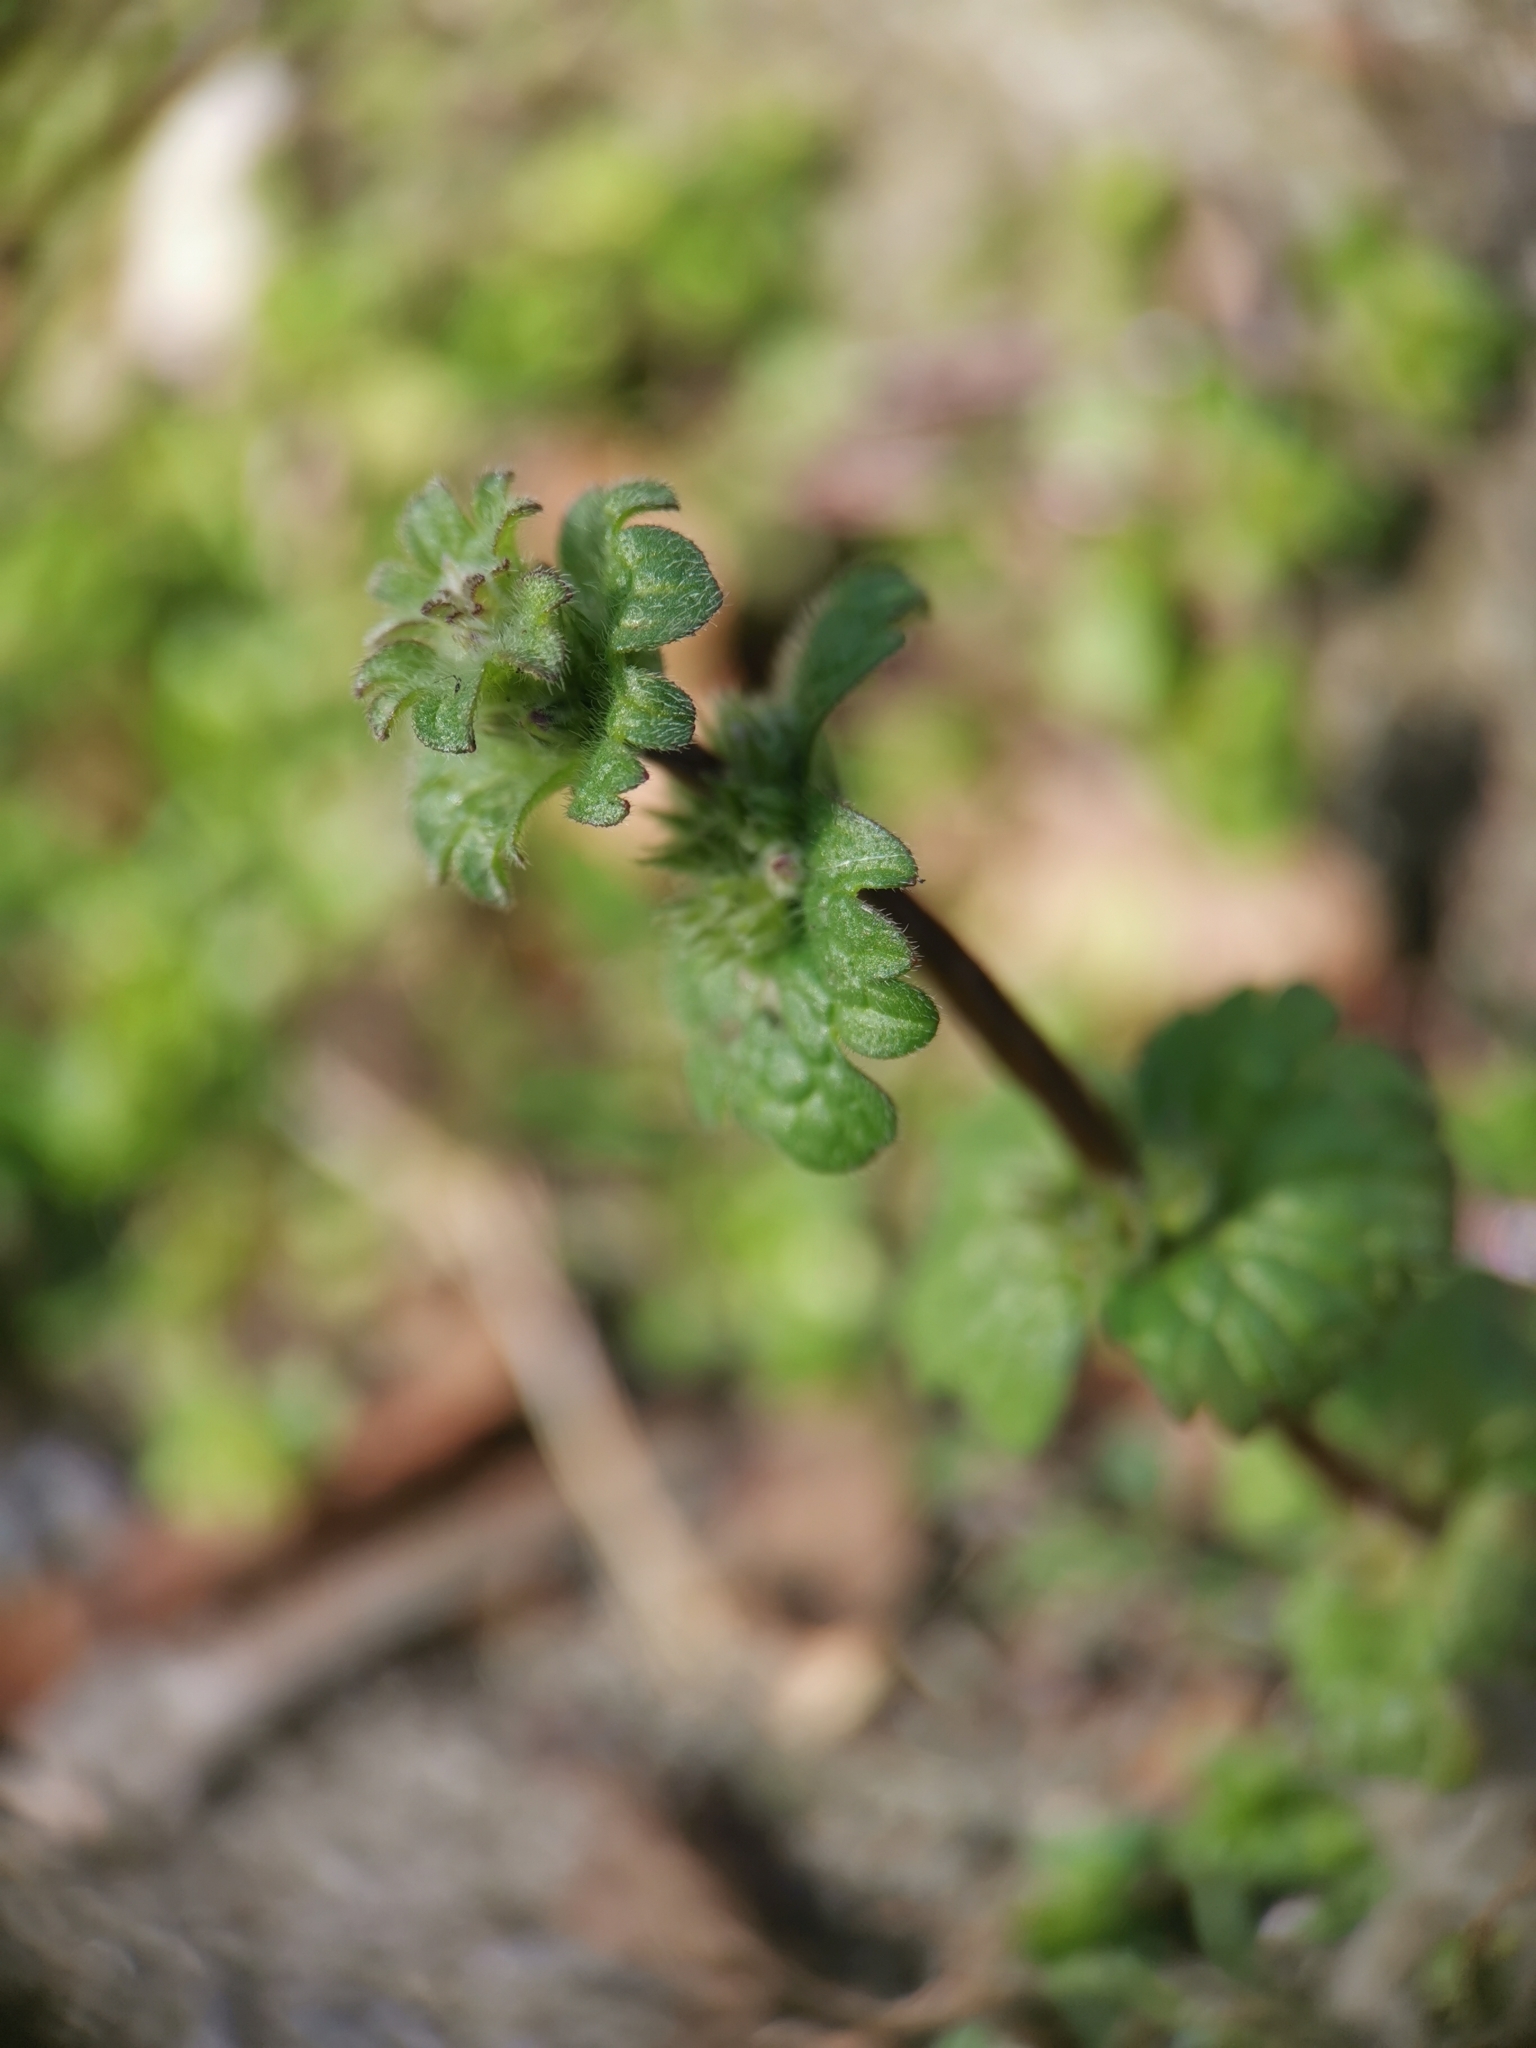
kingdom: Plantae
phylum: Tracheophyta
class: Magnoliopsida
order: Lamiales
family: Lamiaceae
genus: Lamium
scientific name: Lamium amplexicaule
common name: Henbit dead-nettle
